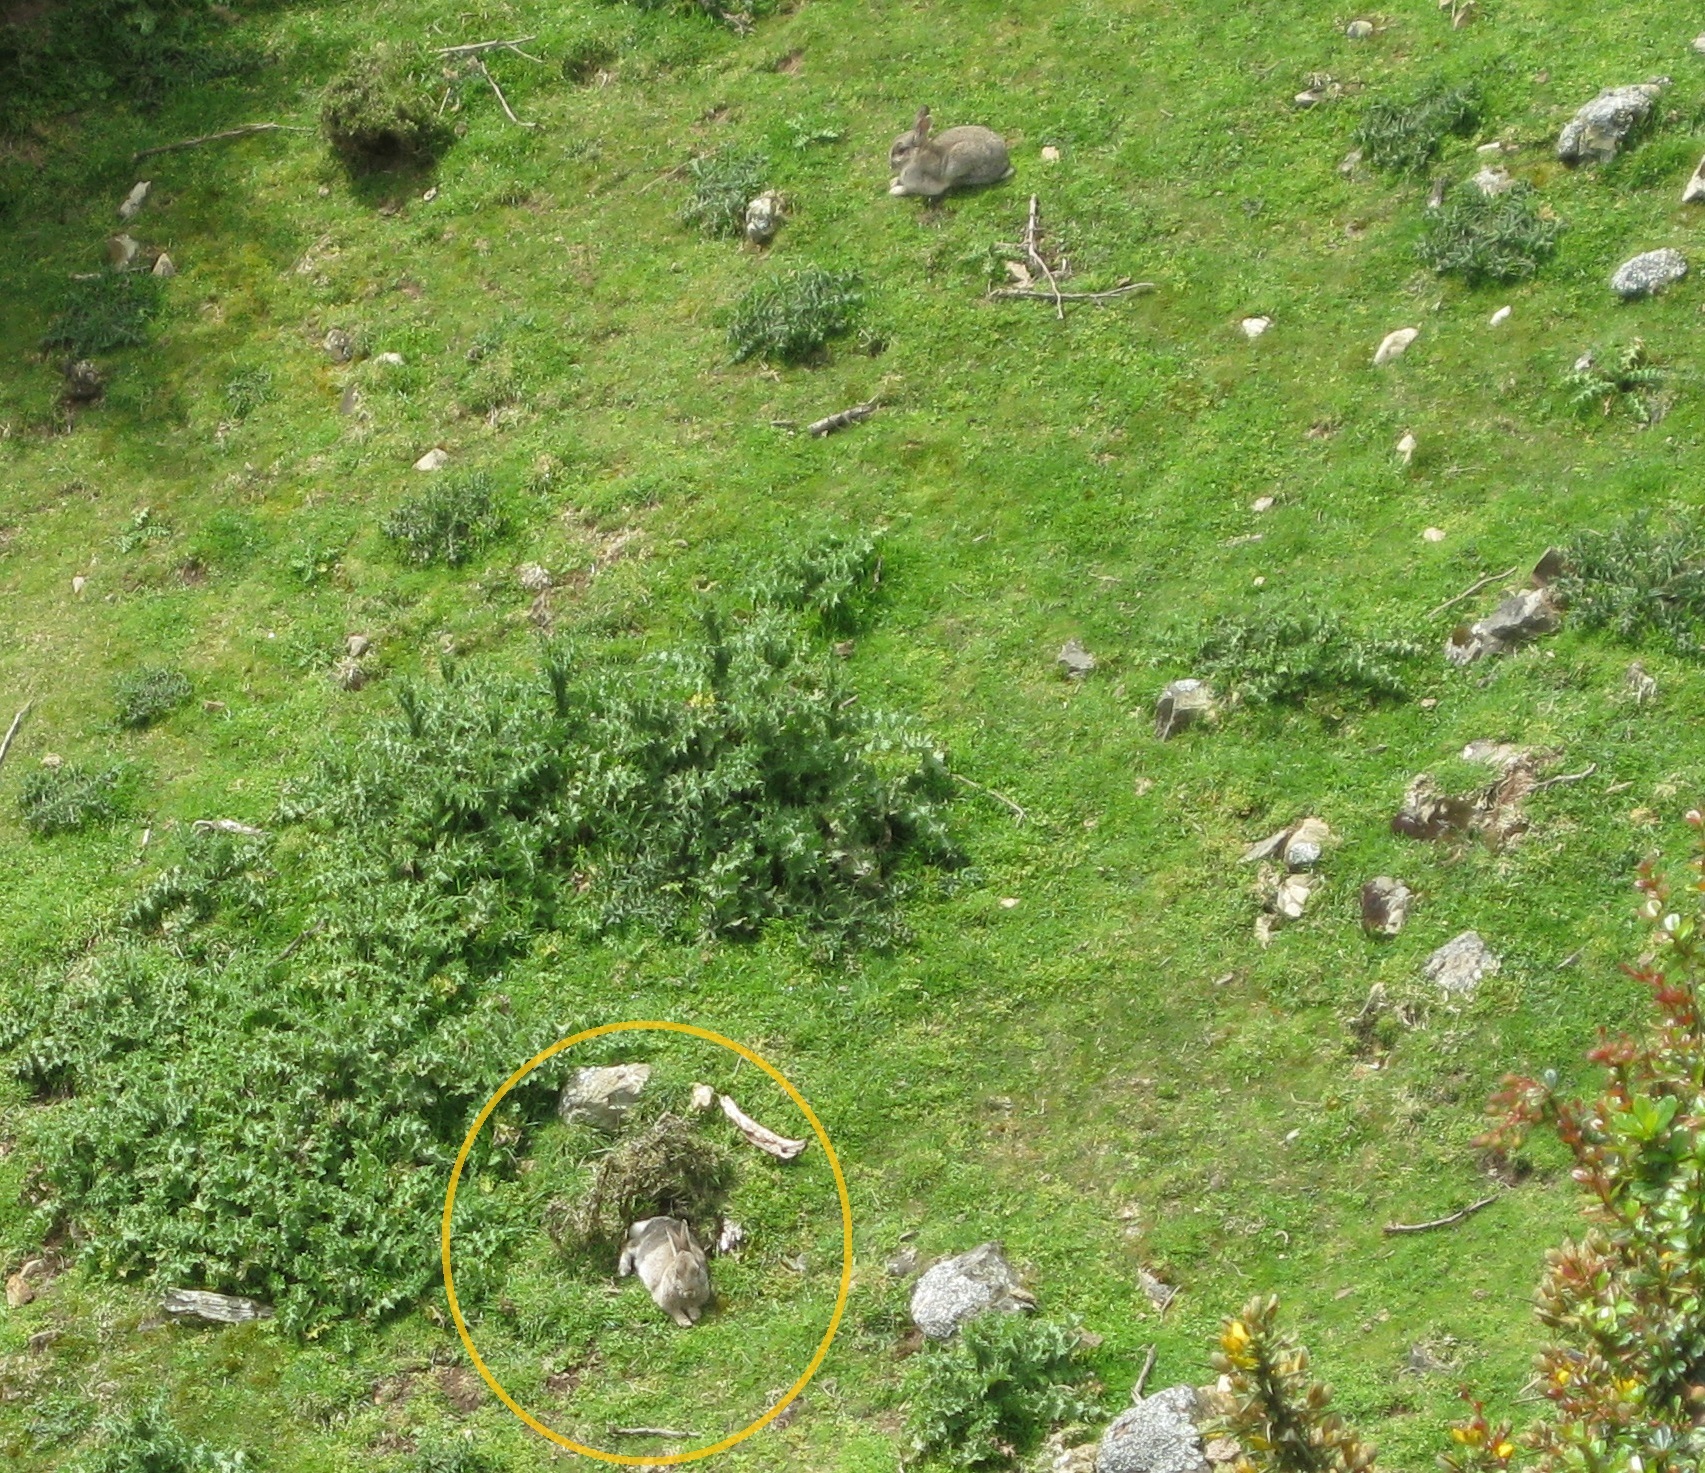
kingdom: Animalia
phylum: Chordata
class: Mammalia
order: Lagomorpha
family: Leporidae
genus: Oryctolagus
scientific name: Oryctolagus cuniculus
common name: European rabbit
